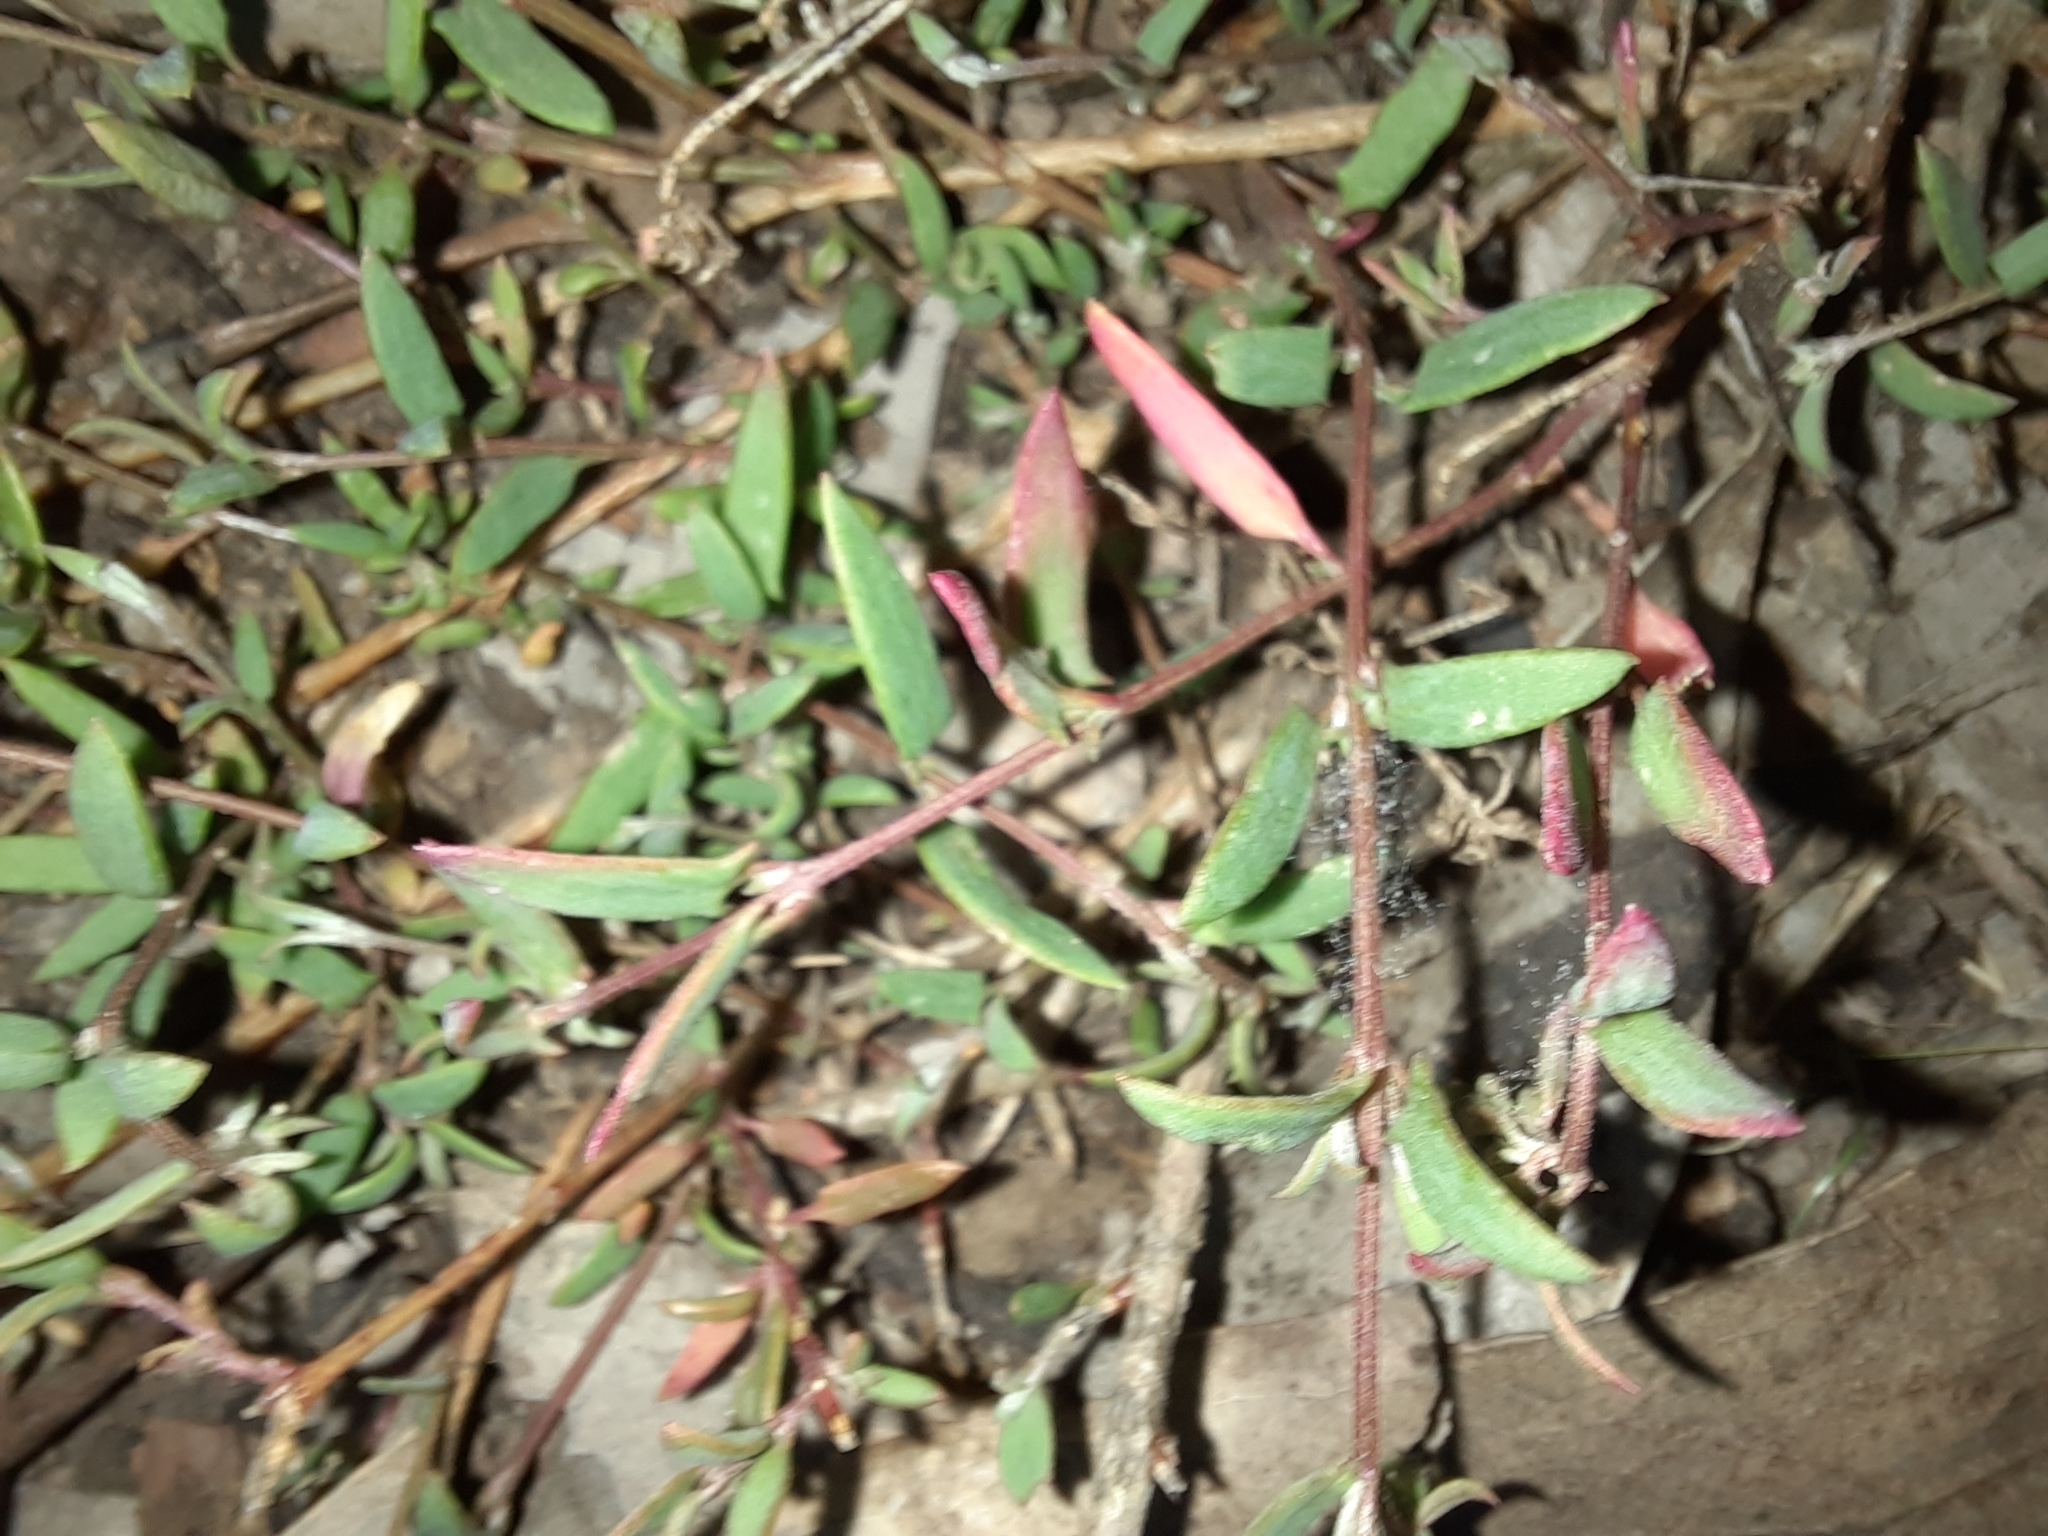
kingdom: Plantae
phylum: Tracheophyta
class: Magnoliopsida
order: Caryophyllales
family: Amaranthaceae
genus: Chenopodium
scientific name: Chenopodium nutans
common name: Climbing-saltbush
